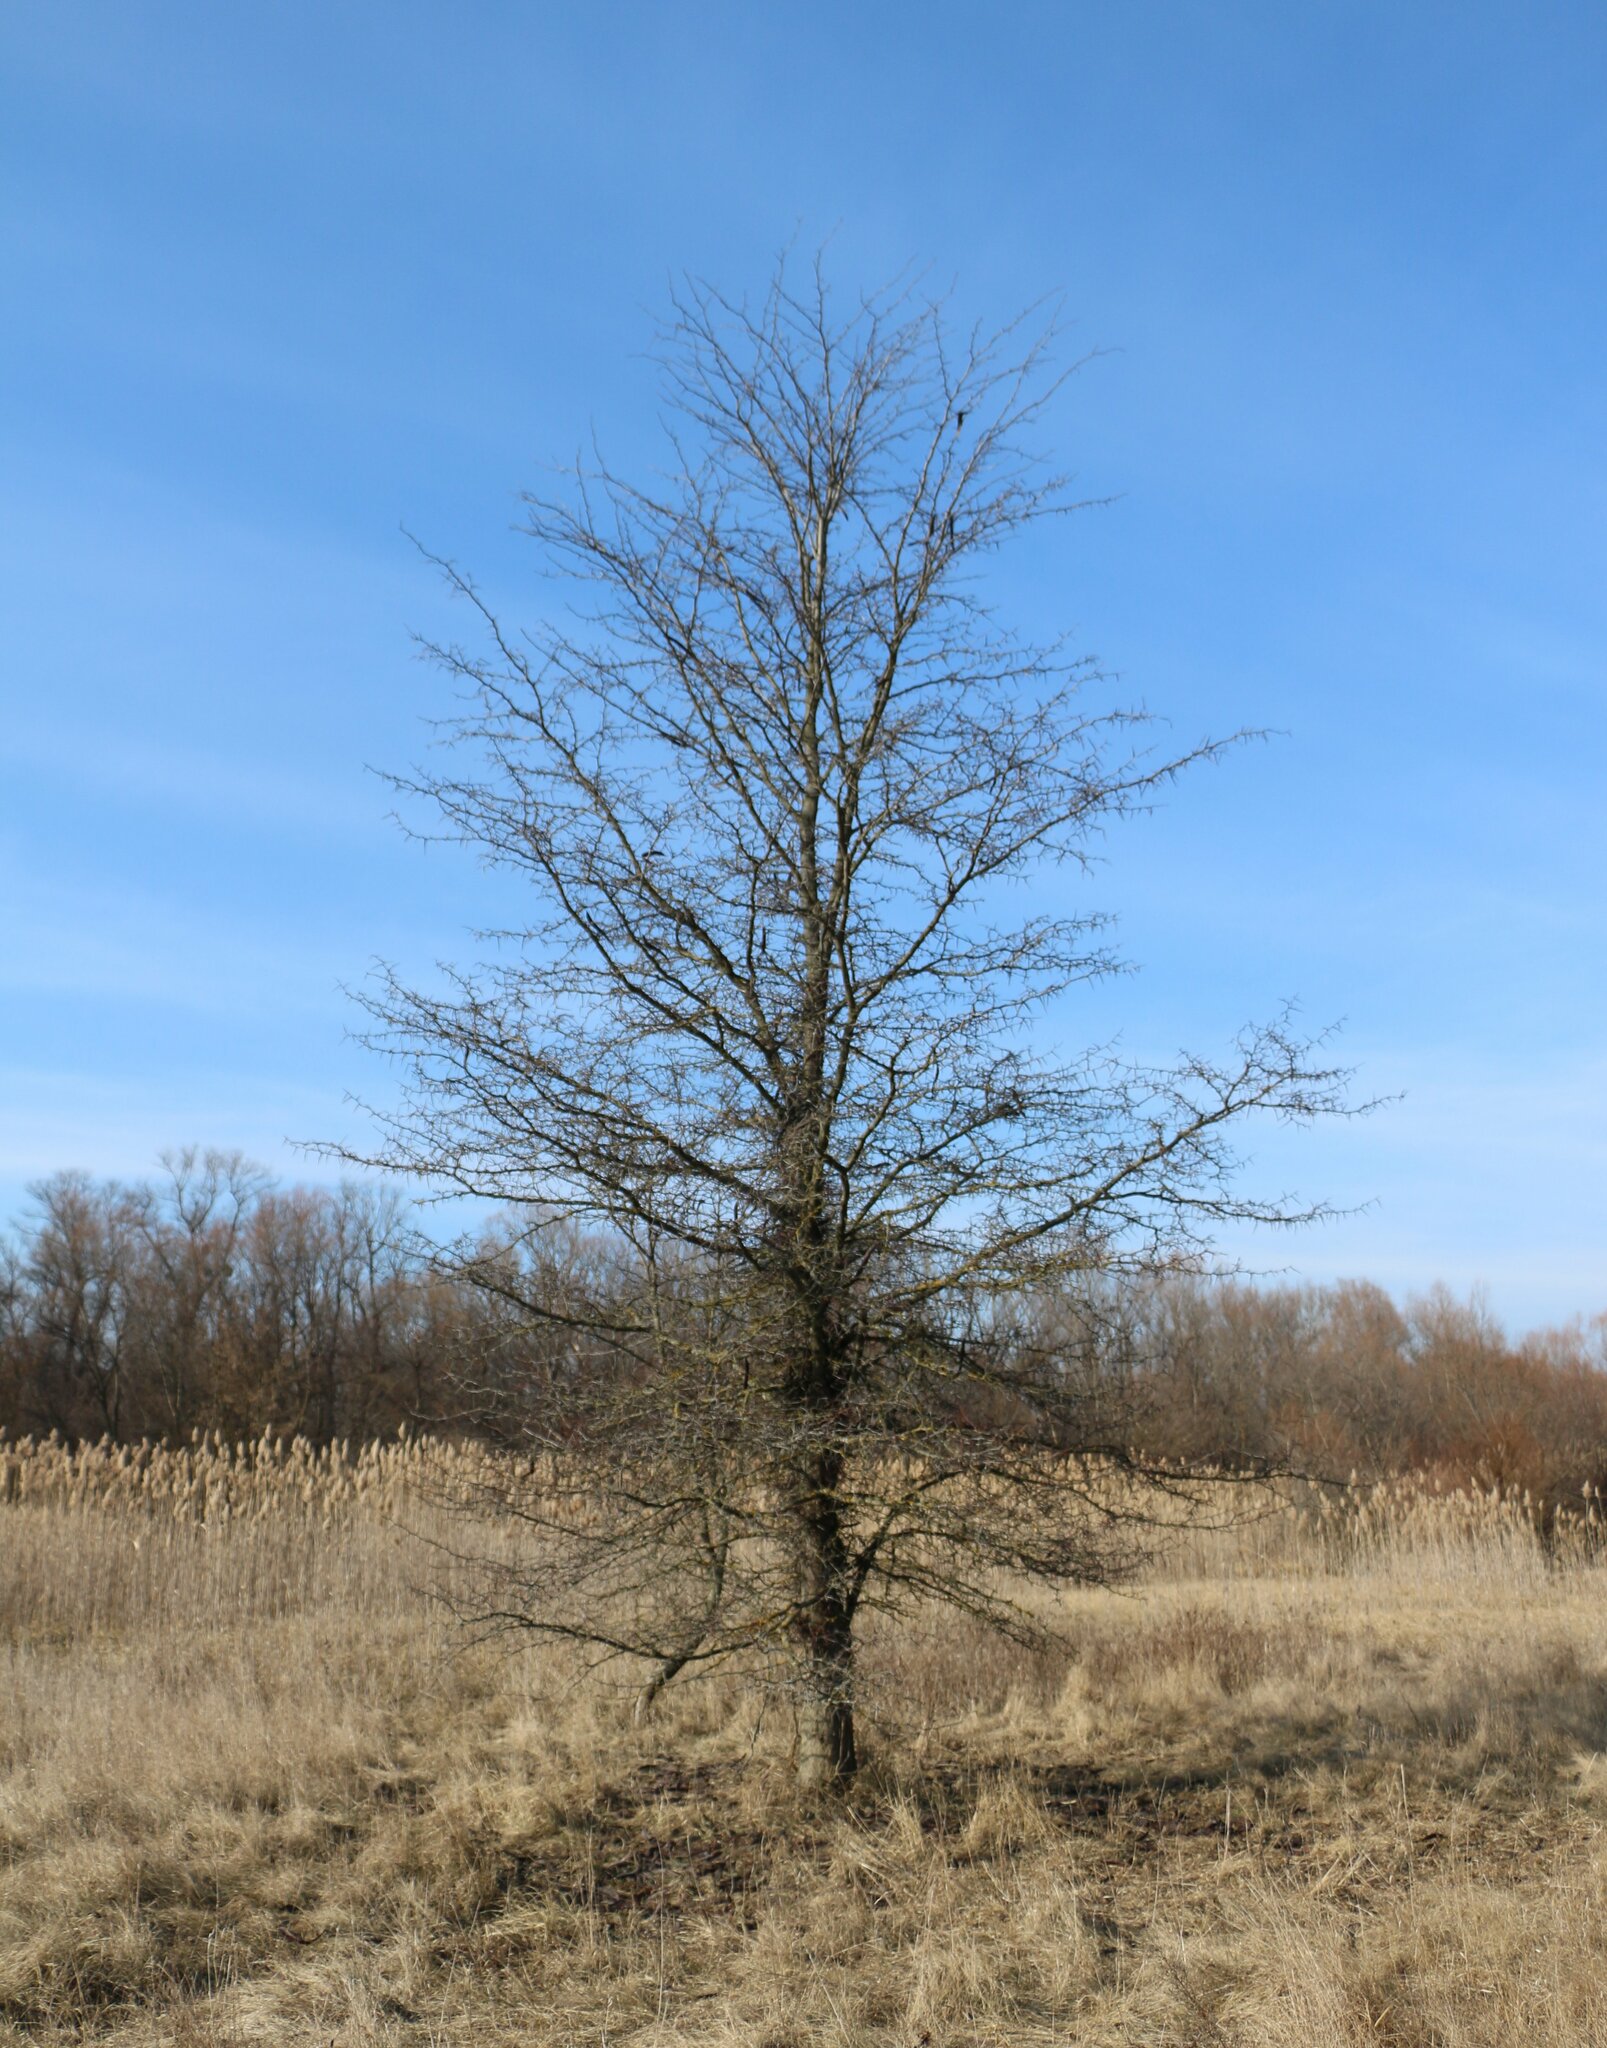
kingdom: Plantae
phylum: Tracheophyta
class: Magnoliopsida
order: Fabales
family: Fabaceae
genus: Gleditsia
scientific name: Gleditsia triacanthos
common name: Common honeylocust
